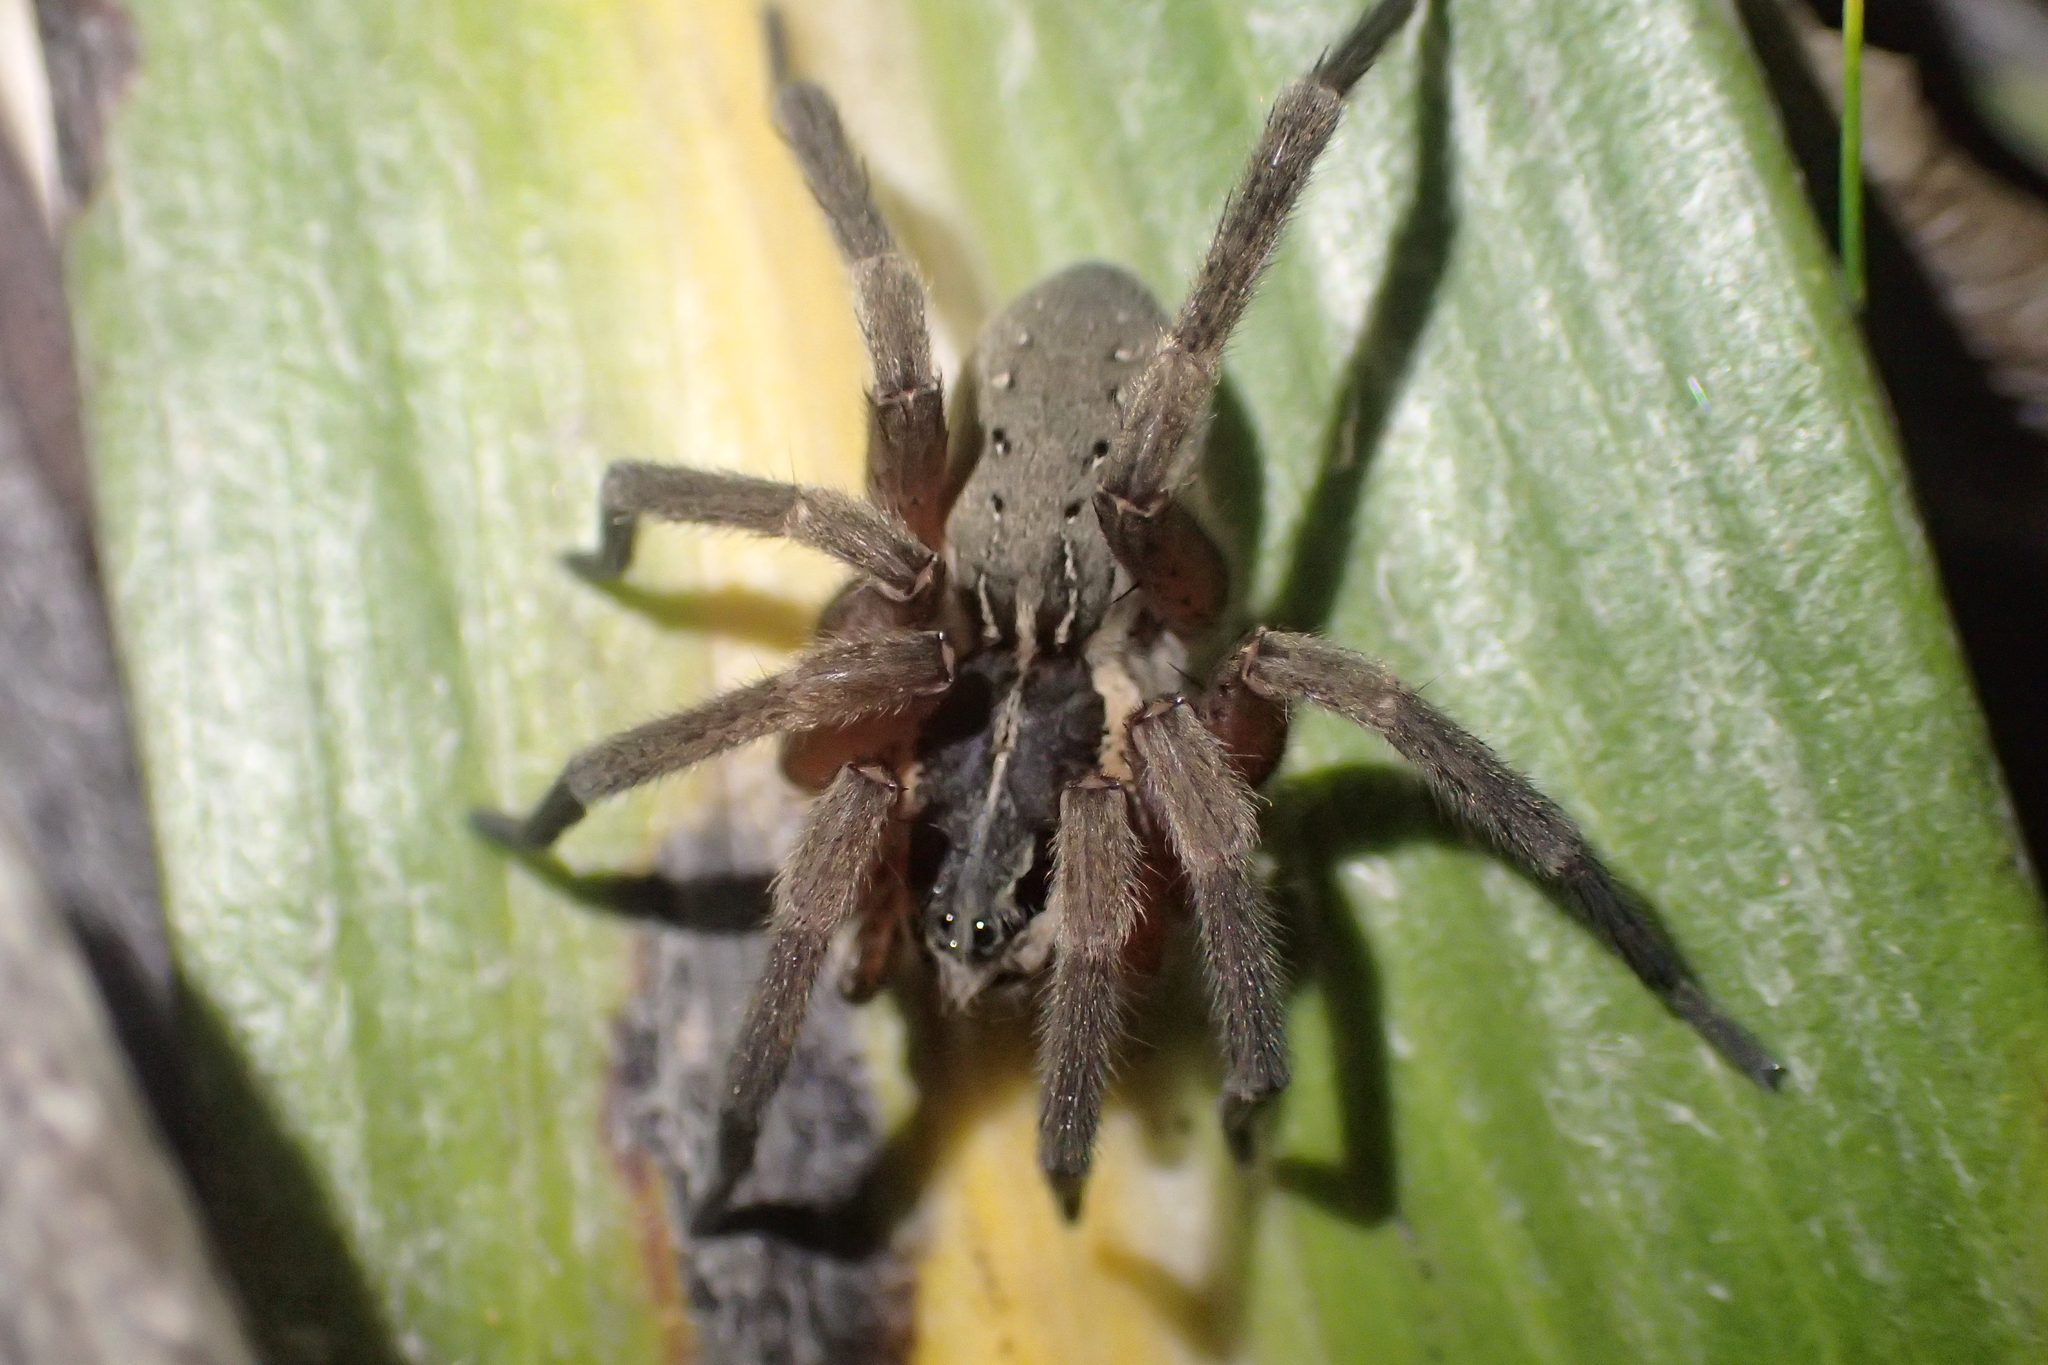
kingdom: Animalia
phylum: Arthropoda
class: Arachnida
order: Araneae
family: Pisauridae
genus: Dolomedes
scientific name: Dolomedes minor
